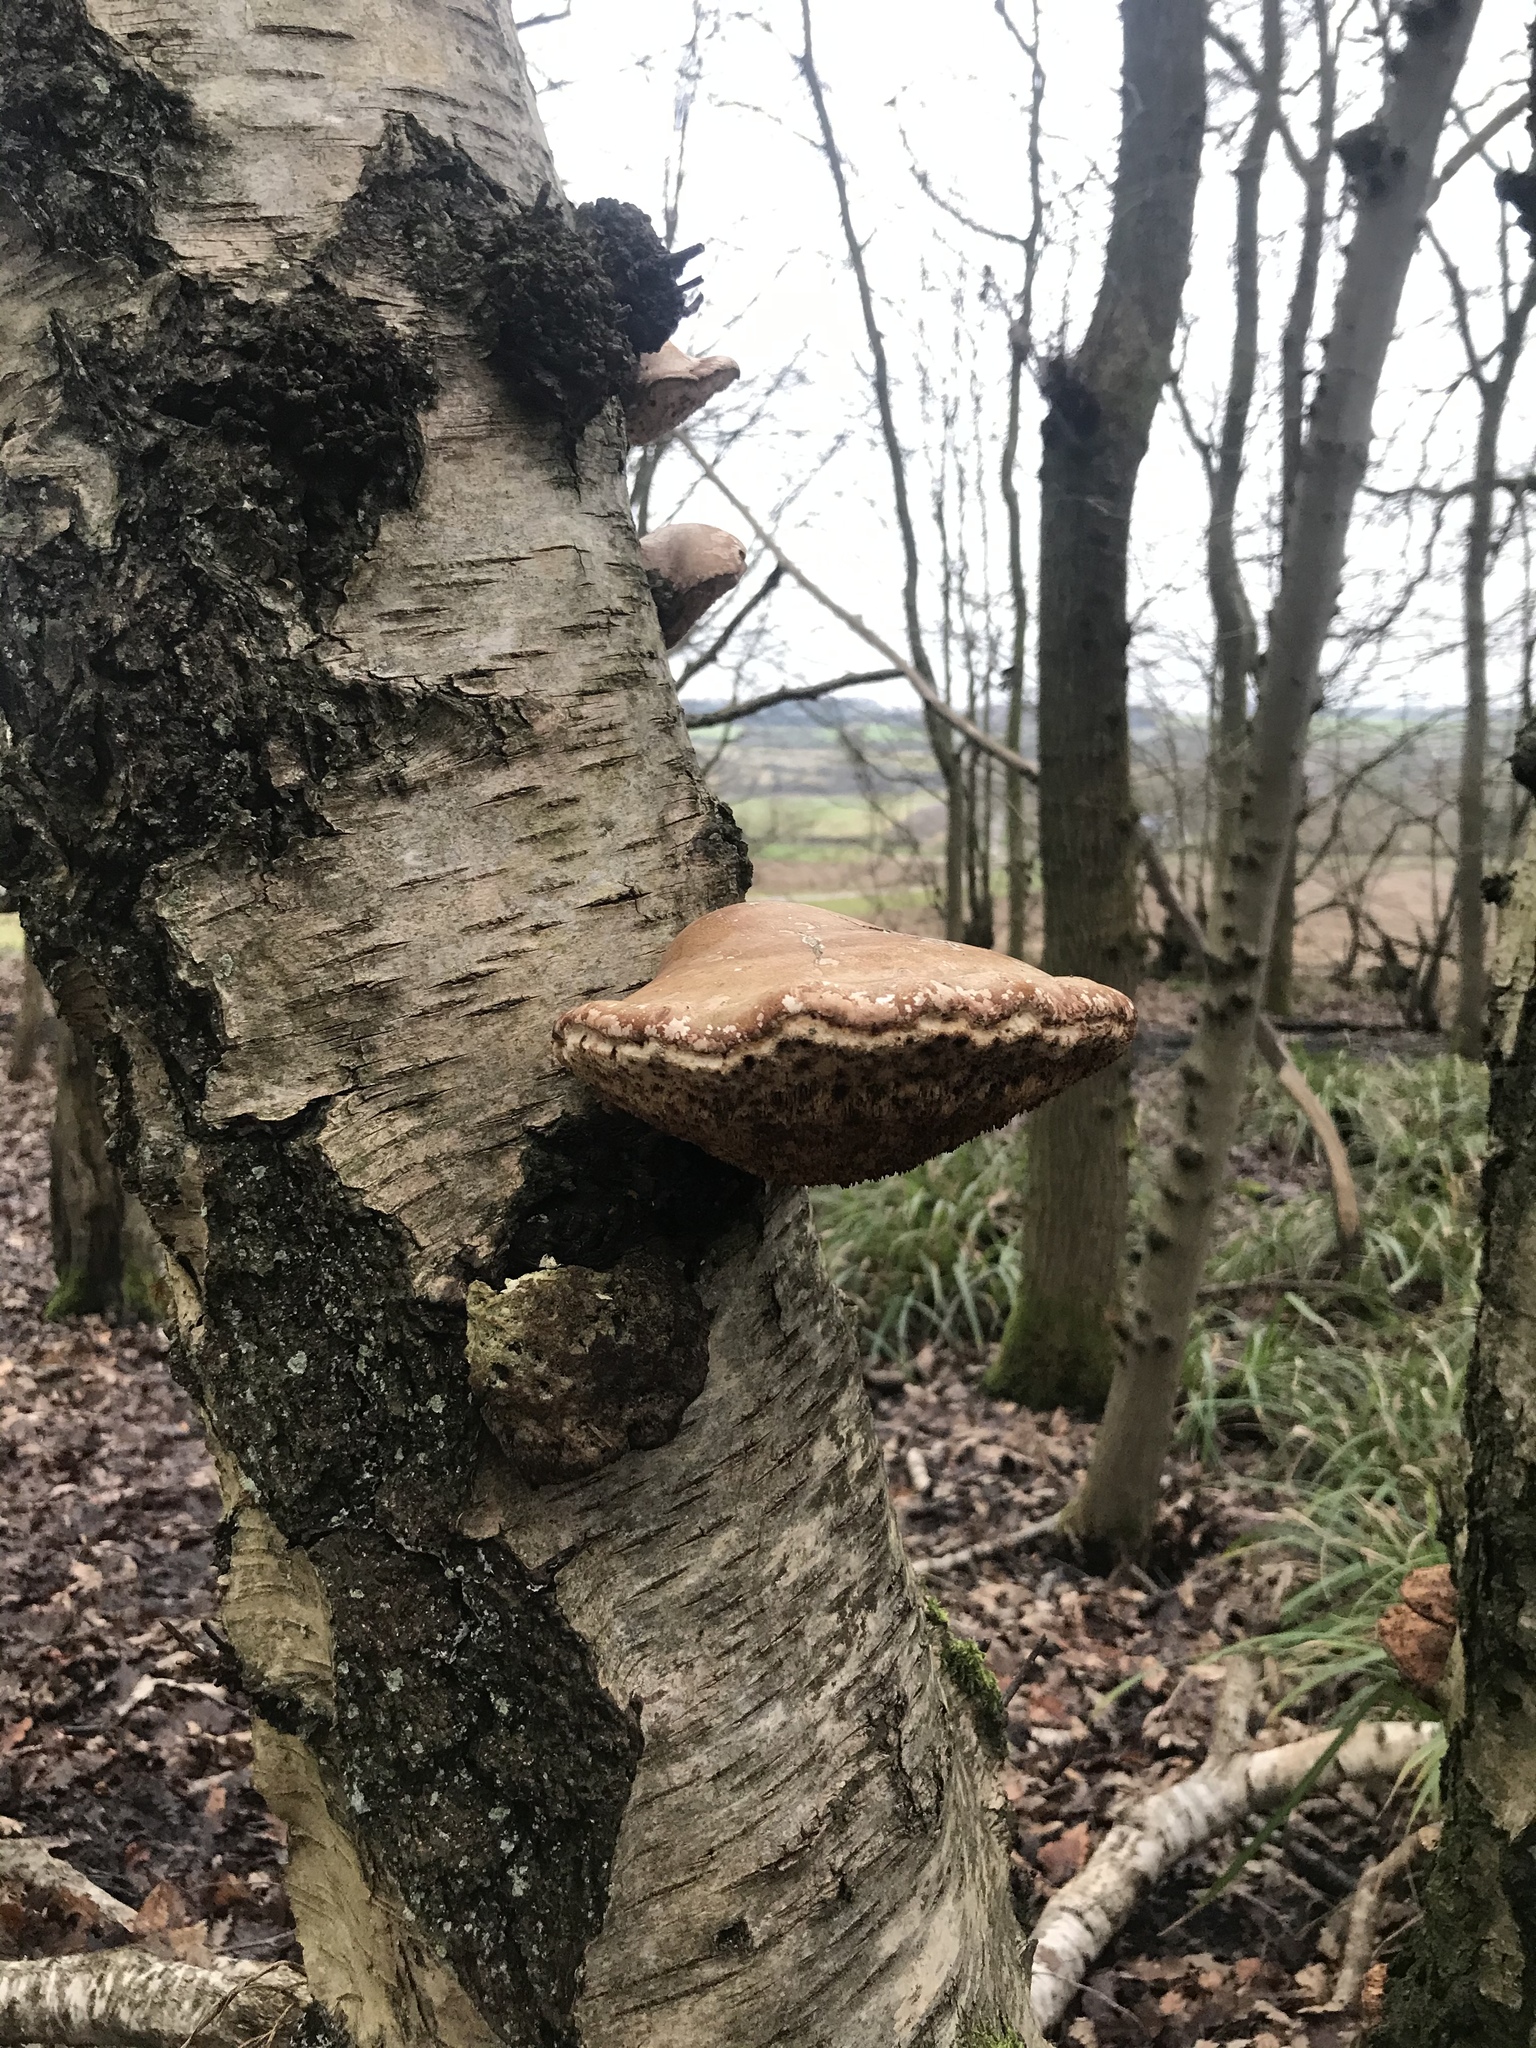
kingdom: Fungi
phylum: Basidiomycota
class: Agaricomycetes
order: Polyporales
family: Fomitopsidaceae
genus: Fomitopsis
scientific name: Fomitopsis betulina
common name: Birch polypore
